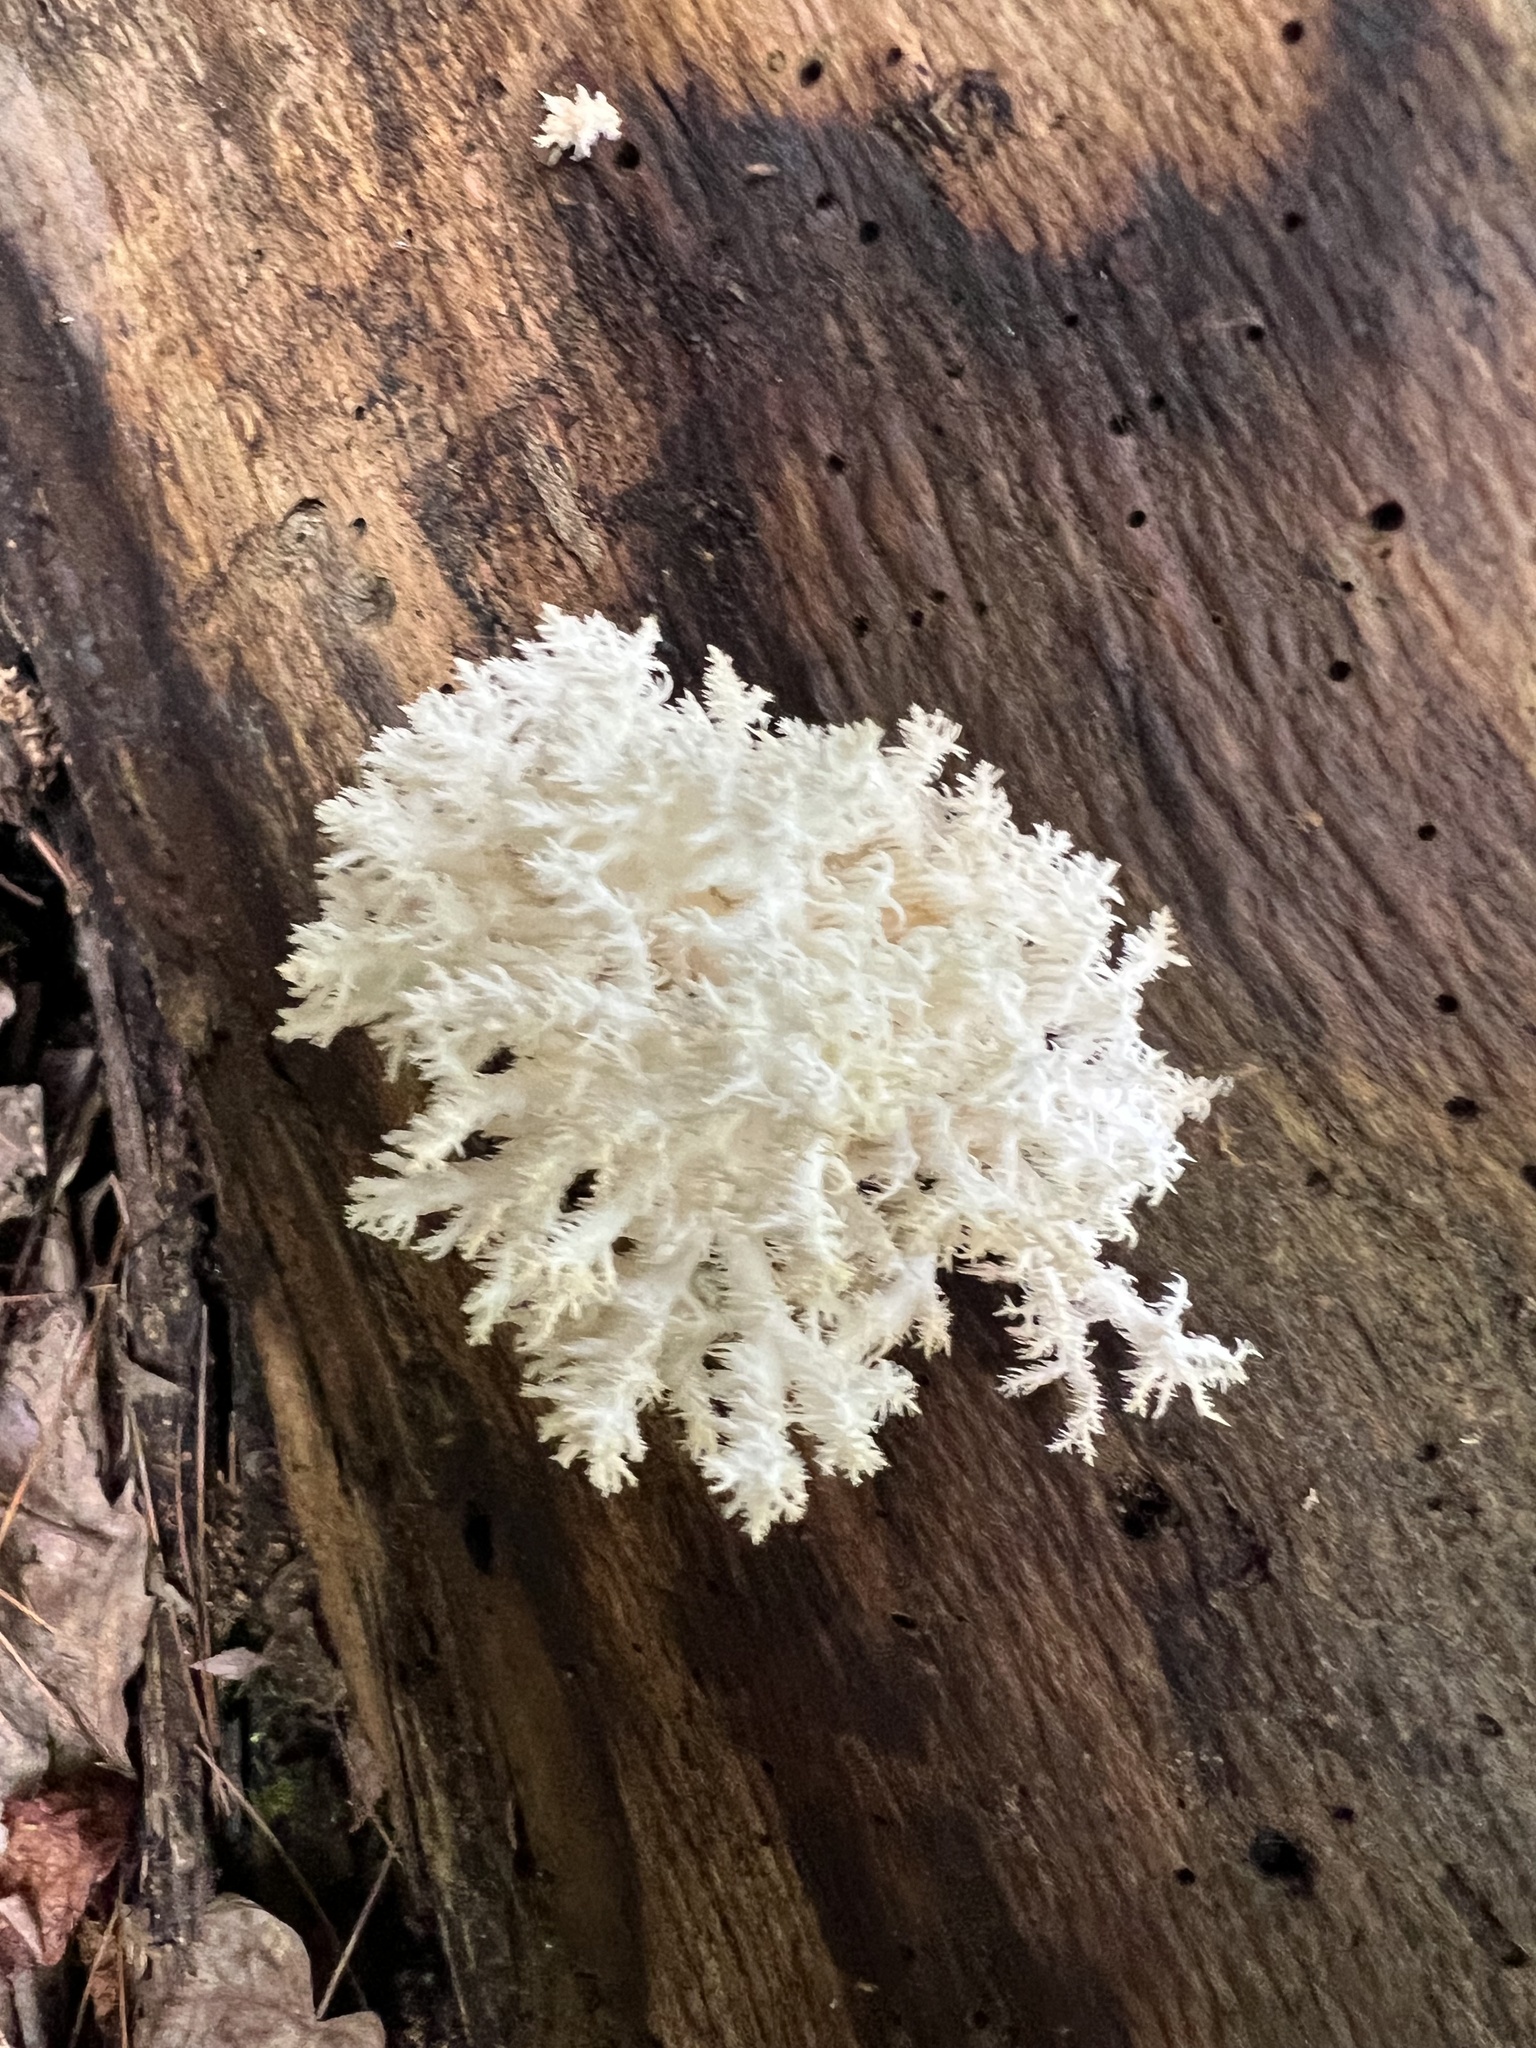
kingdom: Fungi
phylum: Basidiomycota
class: Agaricomycetes
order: Russulales
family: Hericiaceae
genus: Hericium
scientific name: Hericium coralloides
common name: Coral tooth
